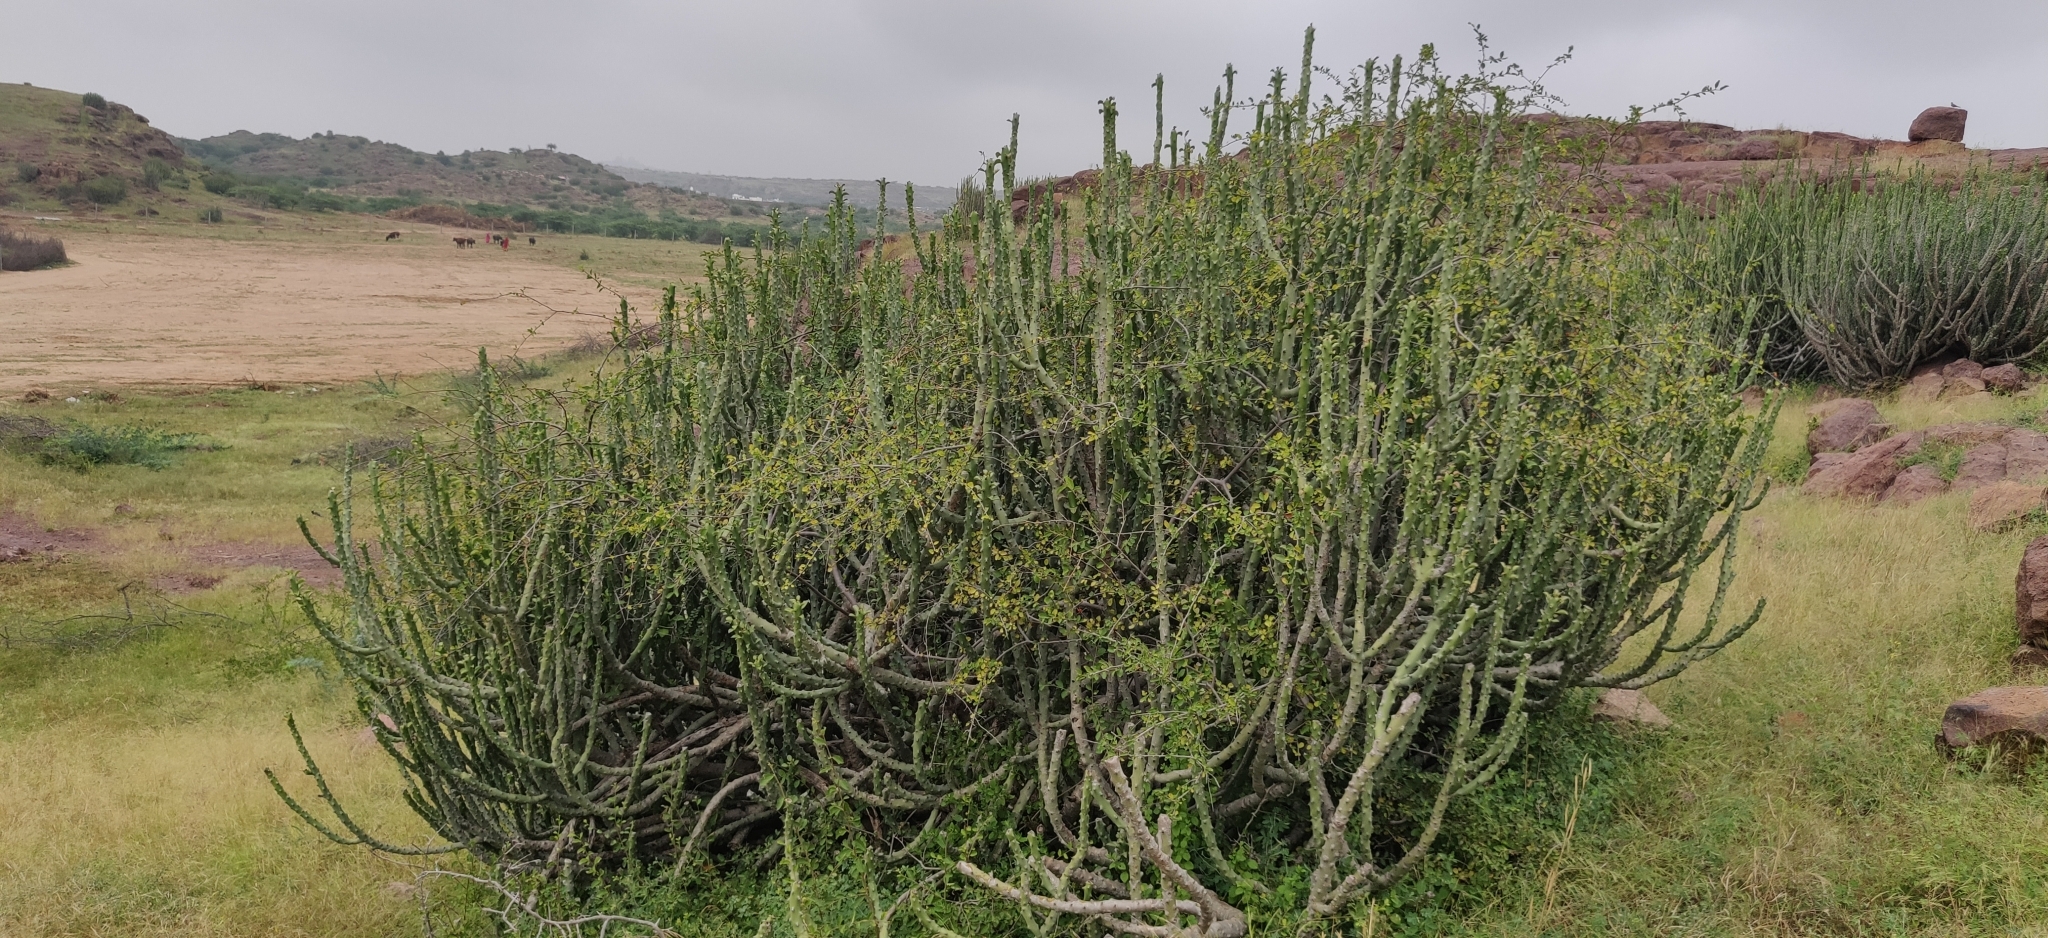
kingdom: Plantae
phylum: Tracheophyta
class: Magnoliopsida
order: Malpighiales
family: Euphorbiaceae
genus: Euphorbia
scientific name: Euphorbia caducifolia
